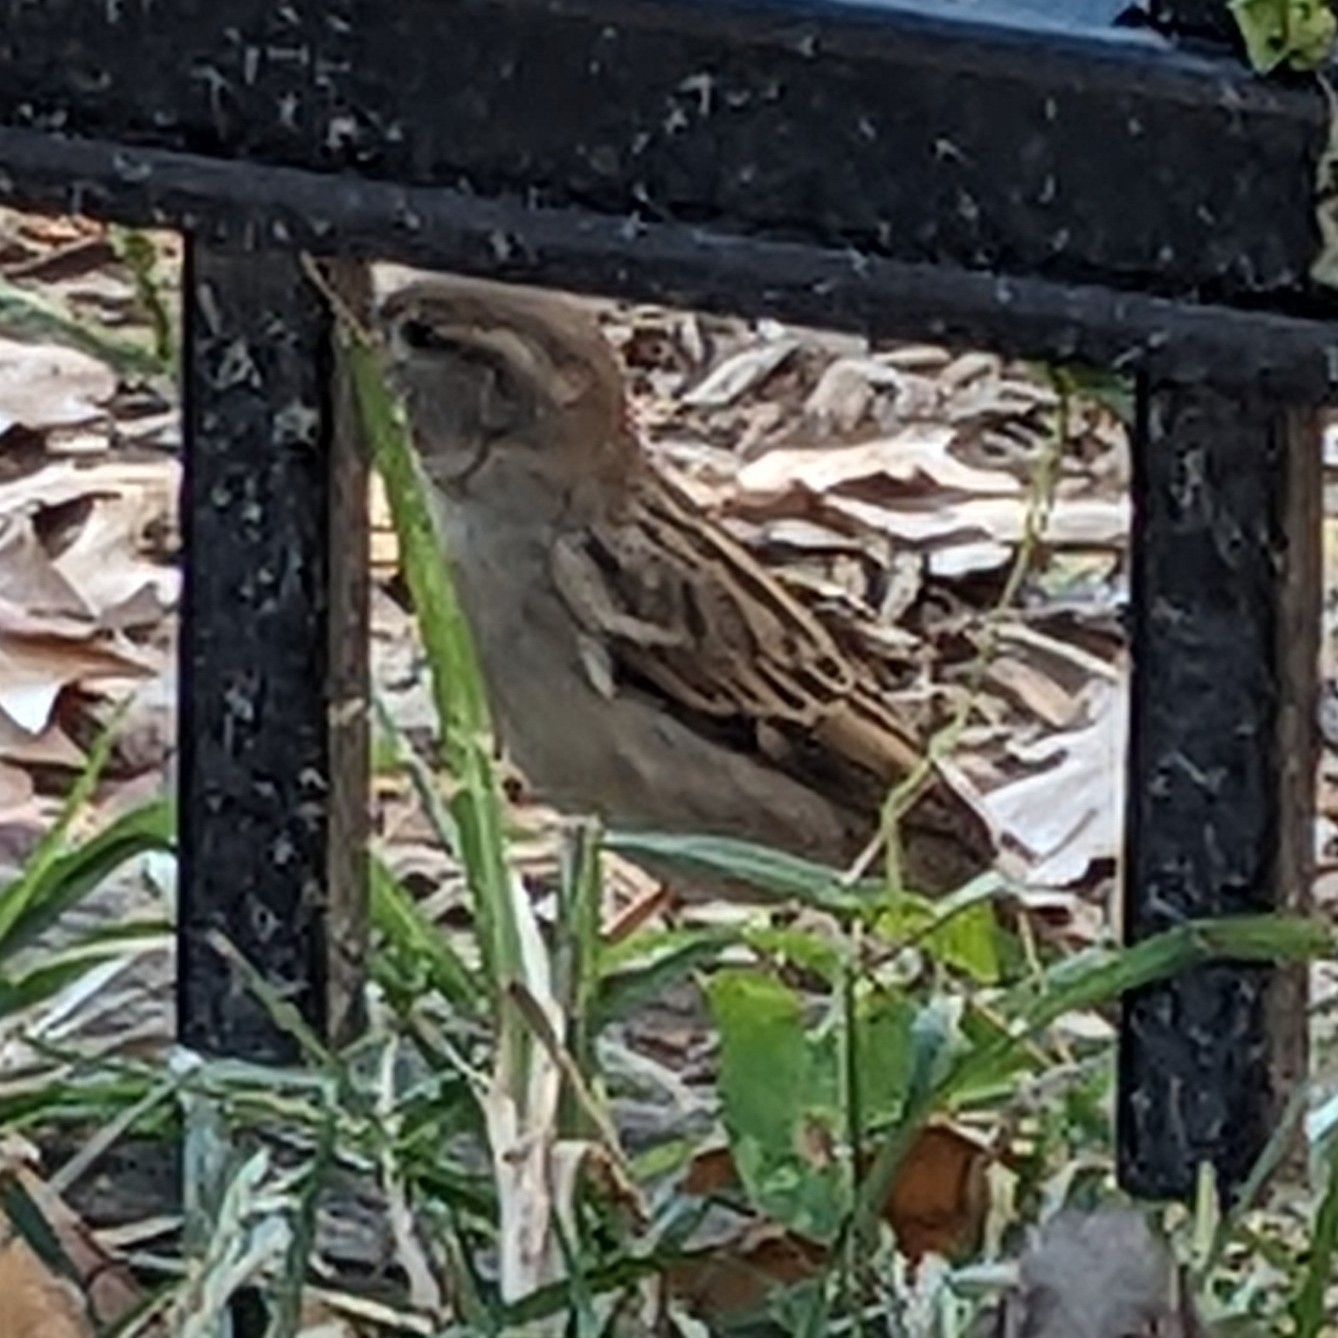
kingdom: Animalia
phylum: Chordata
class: Aves
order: Passeriformes
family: Passeridae
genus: Passer
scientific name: Passer domesticus
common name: House sparrow
